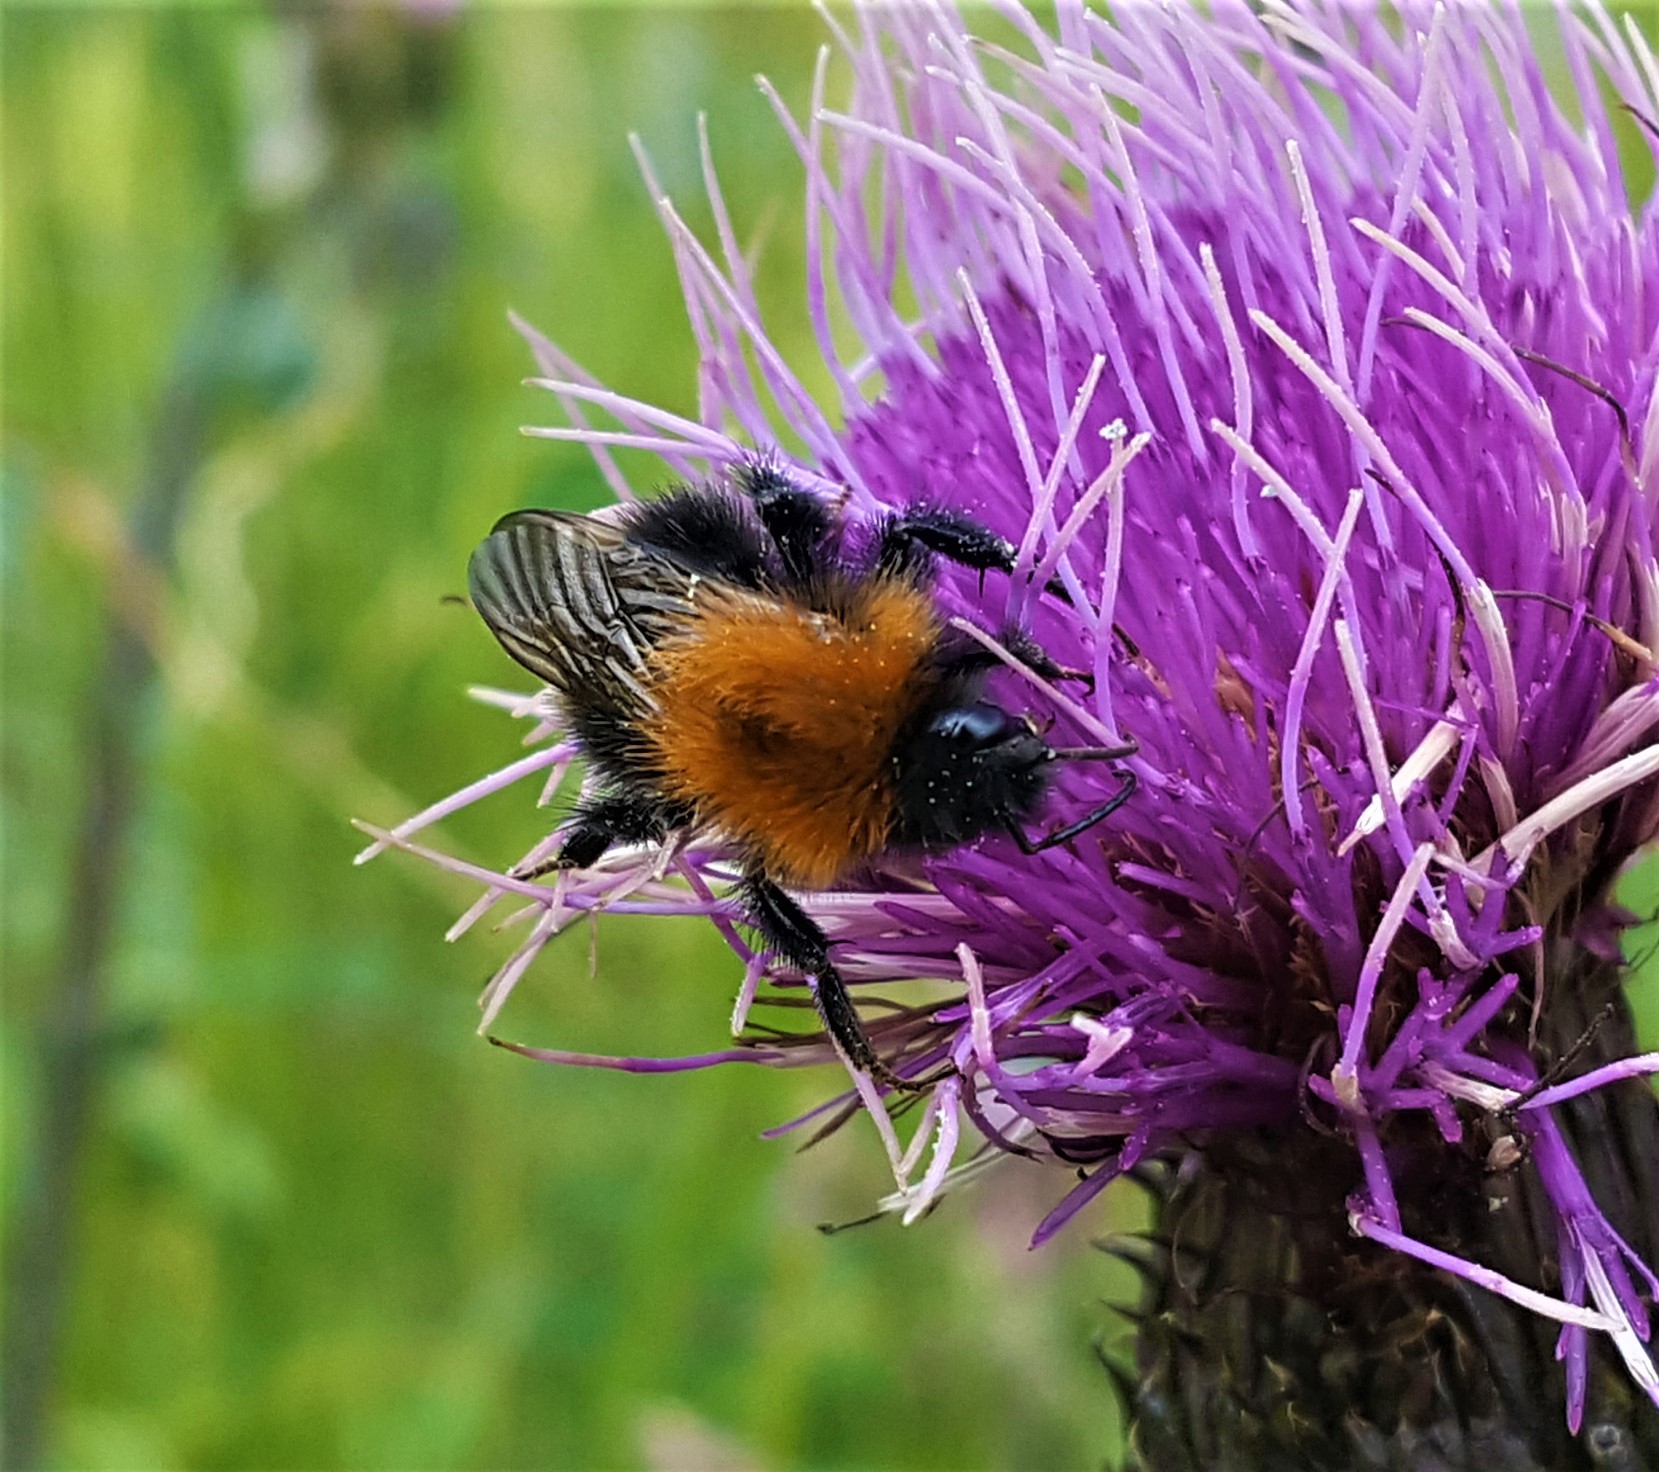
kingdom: Animalia
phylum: Arthropoda
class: Insecta
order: Hymenoptera
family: Apidae
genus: Bombus
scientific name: Bombus hypnorum
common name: New garden bumblebee
